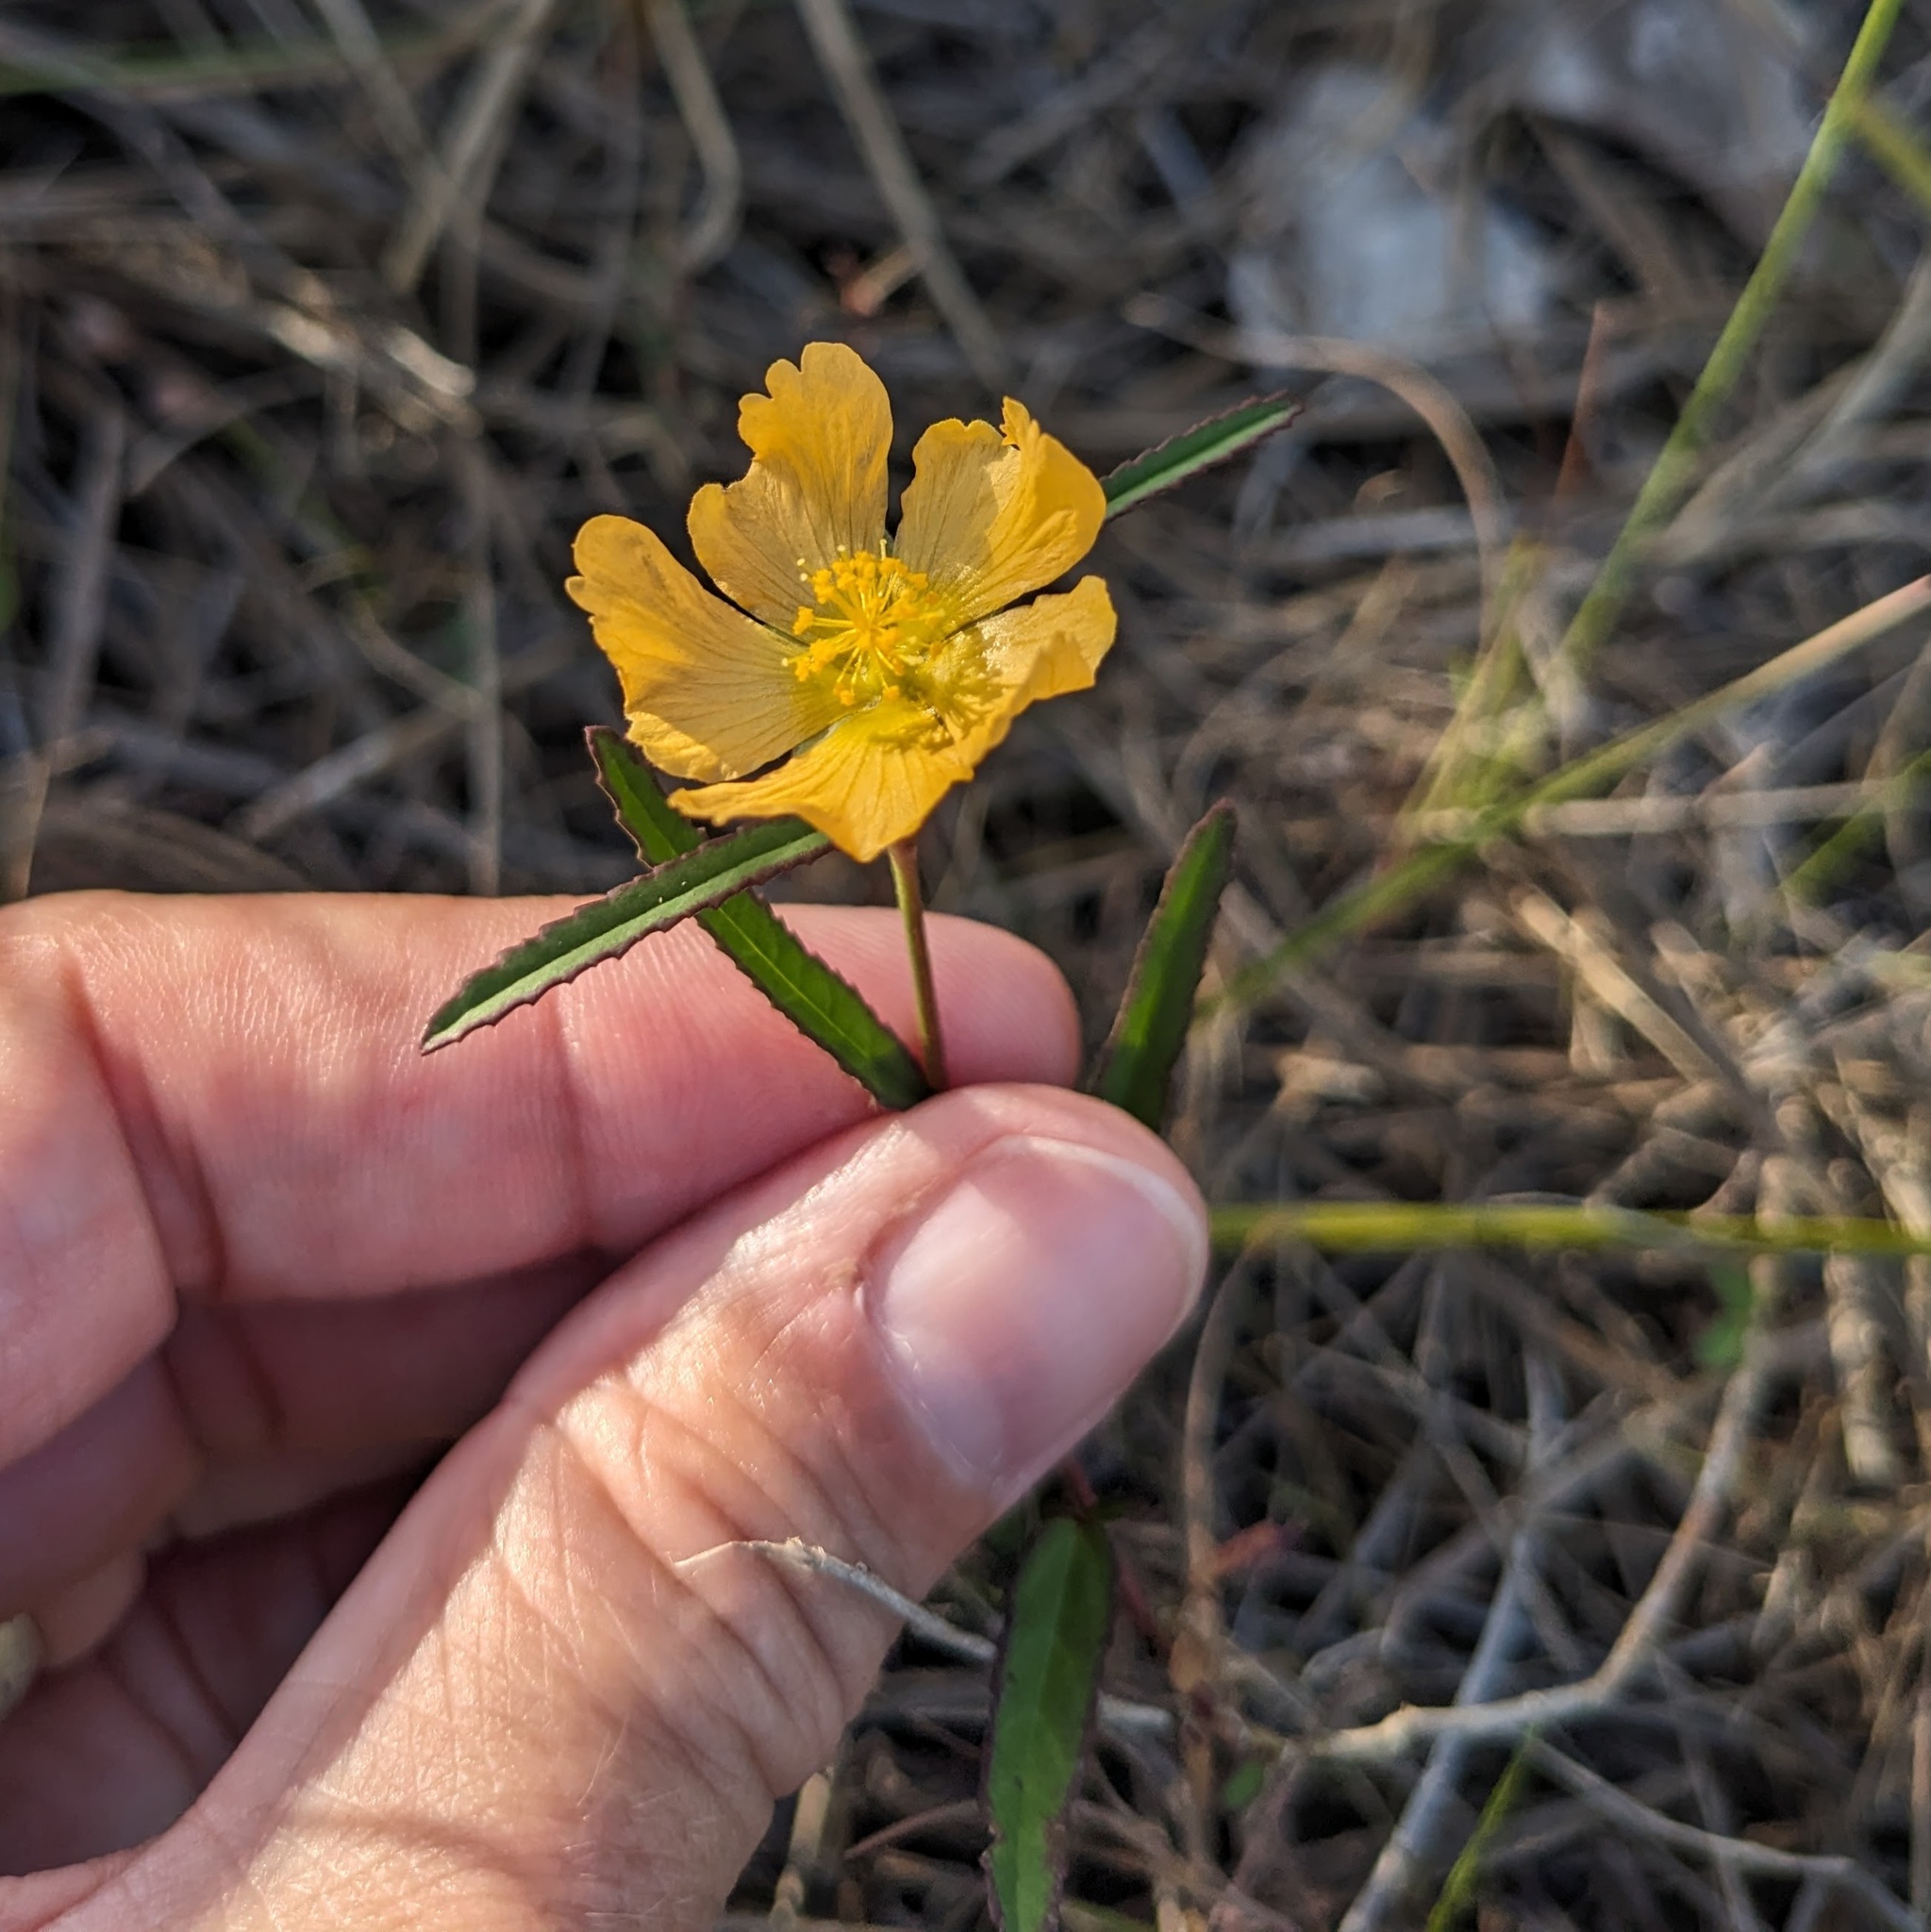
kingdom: Plantae
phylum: Tracheophyta
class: Magnoliopsida
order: Malvales
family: Malvaceae
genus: Sida
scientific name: Sida elliottii
